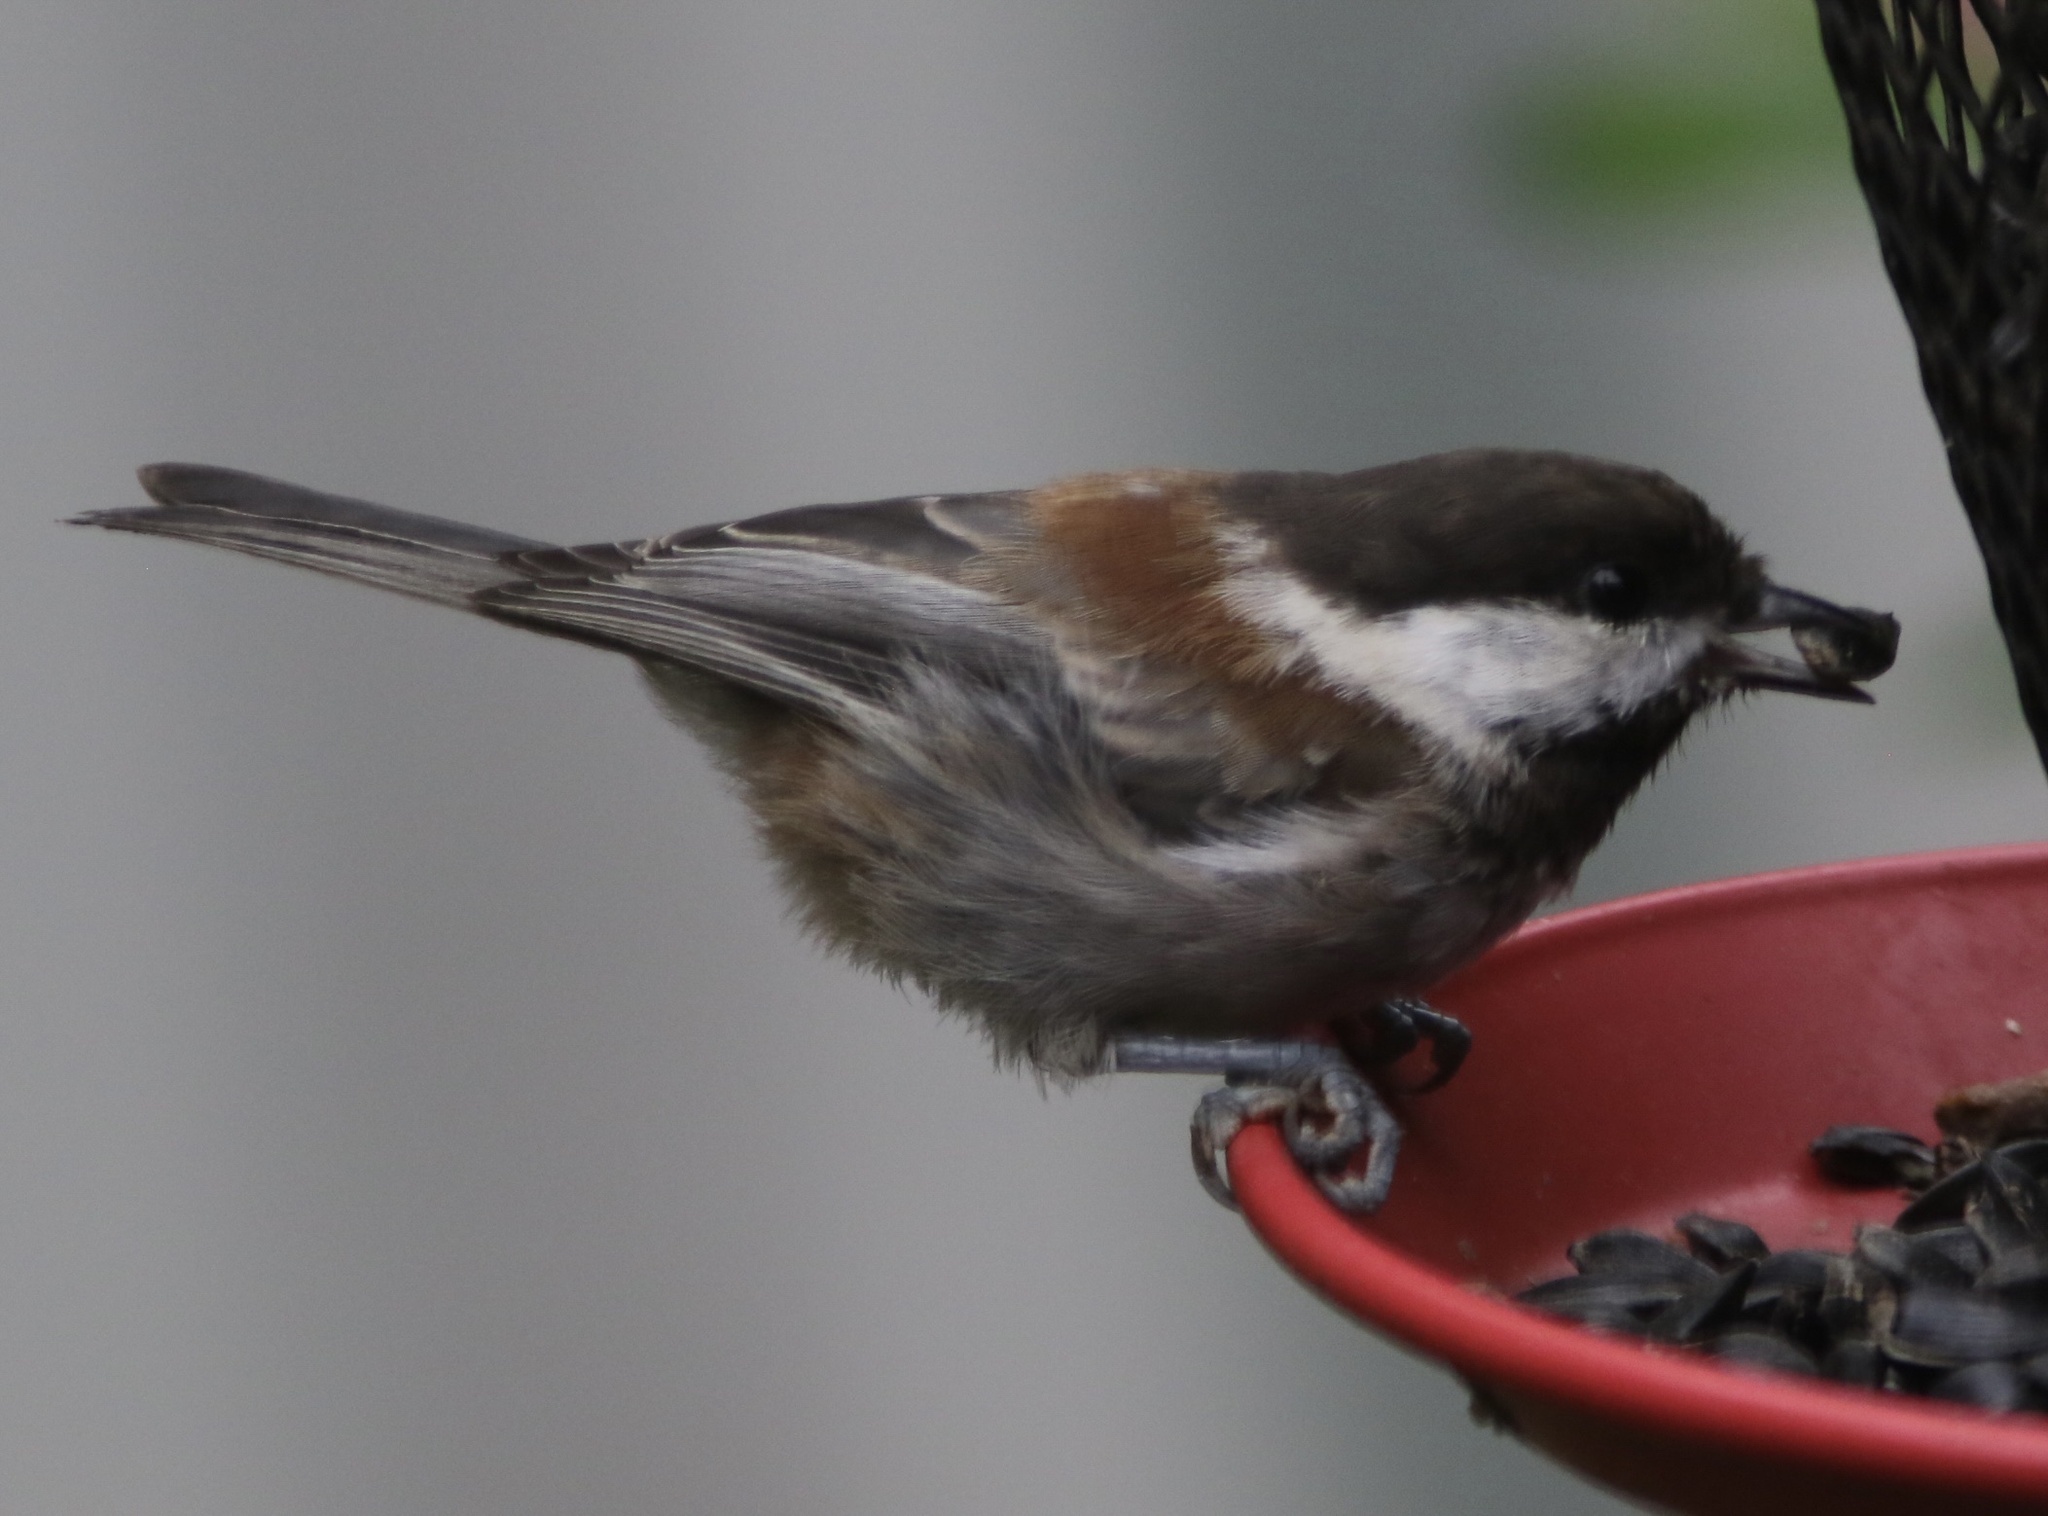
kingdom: Animalia
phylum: Chordata
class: Aves
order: Passeriformes
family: Paridae
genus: Poecile
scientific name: Poecile rufescens
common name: Chestnut-backed chickadee
